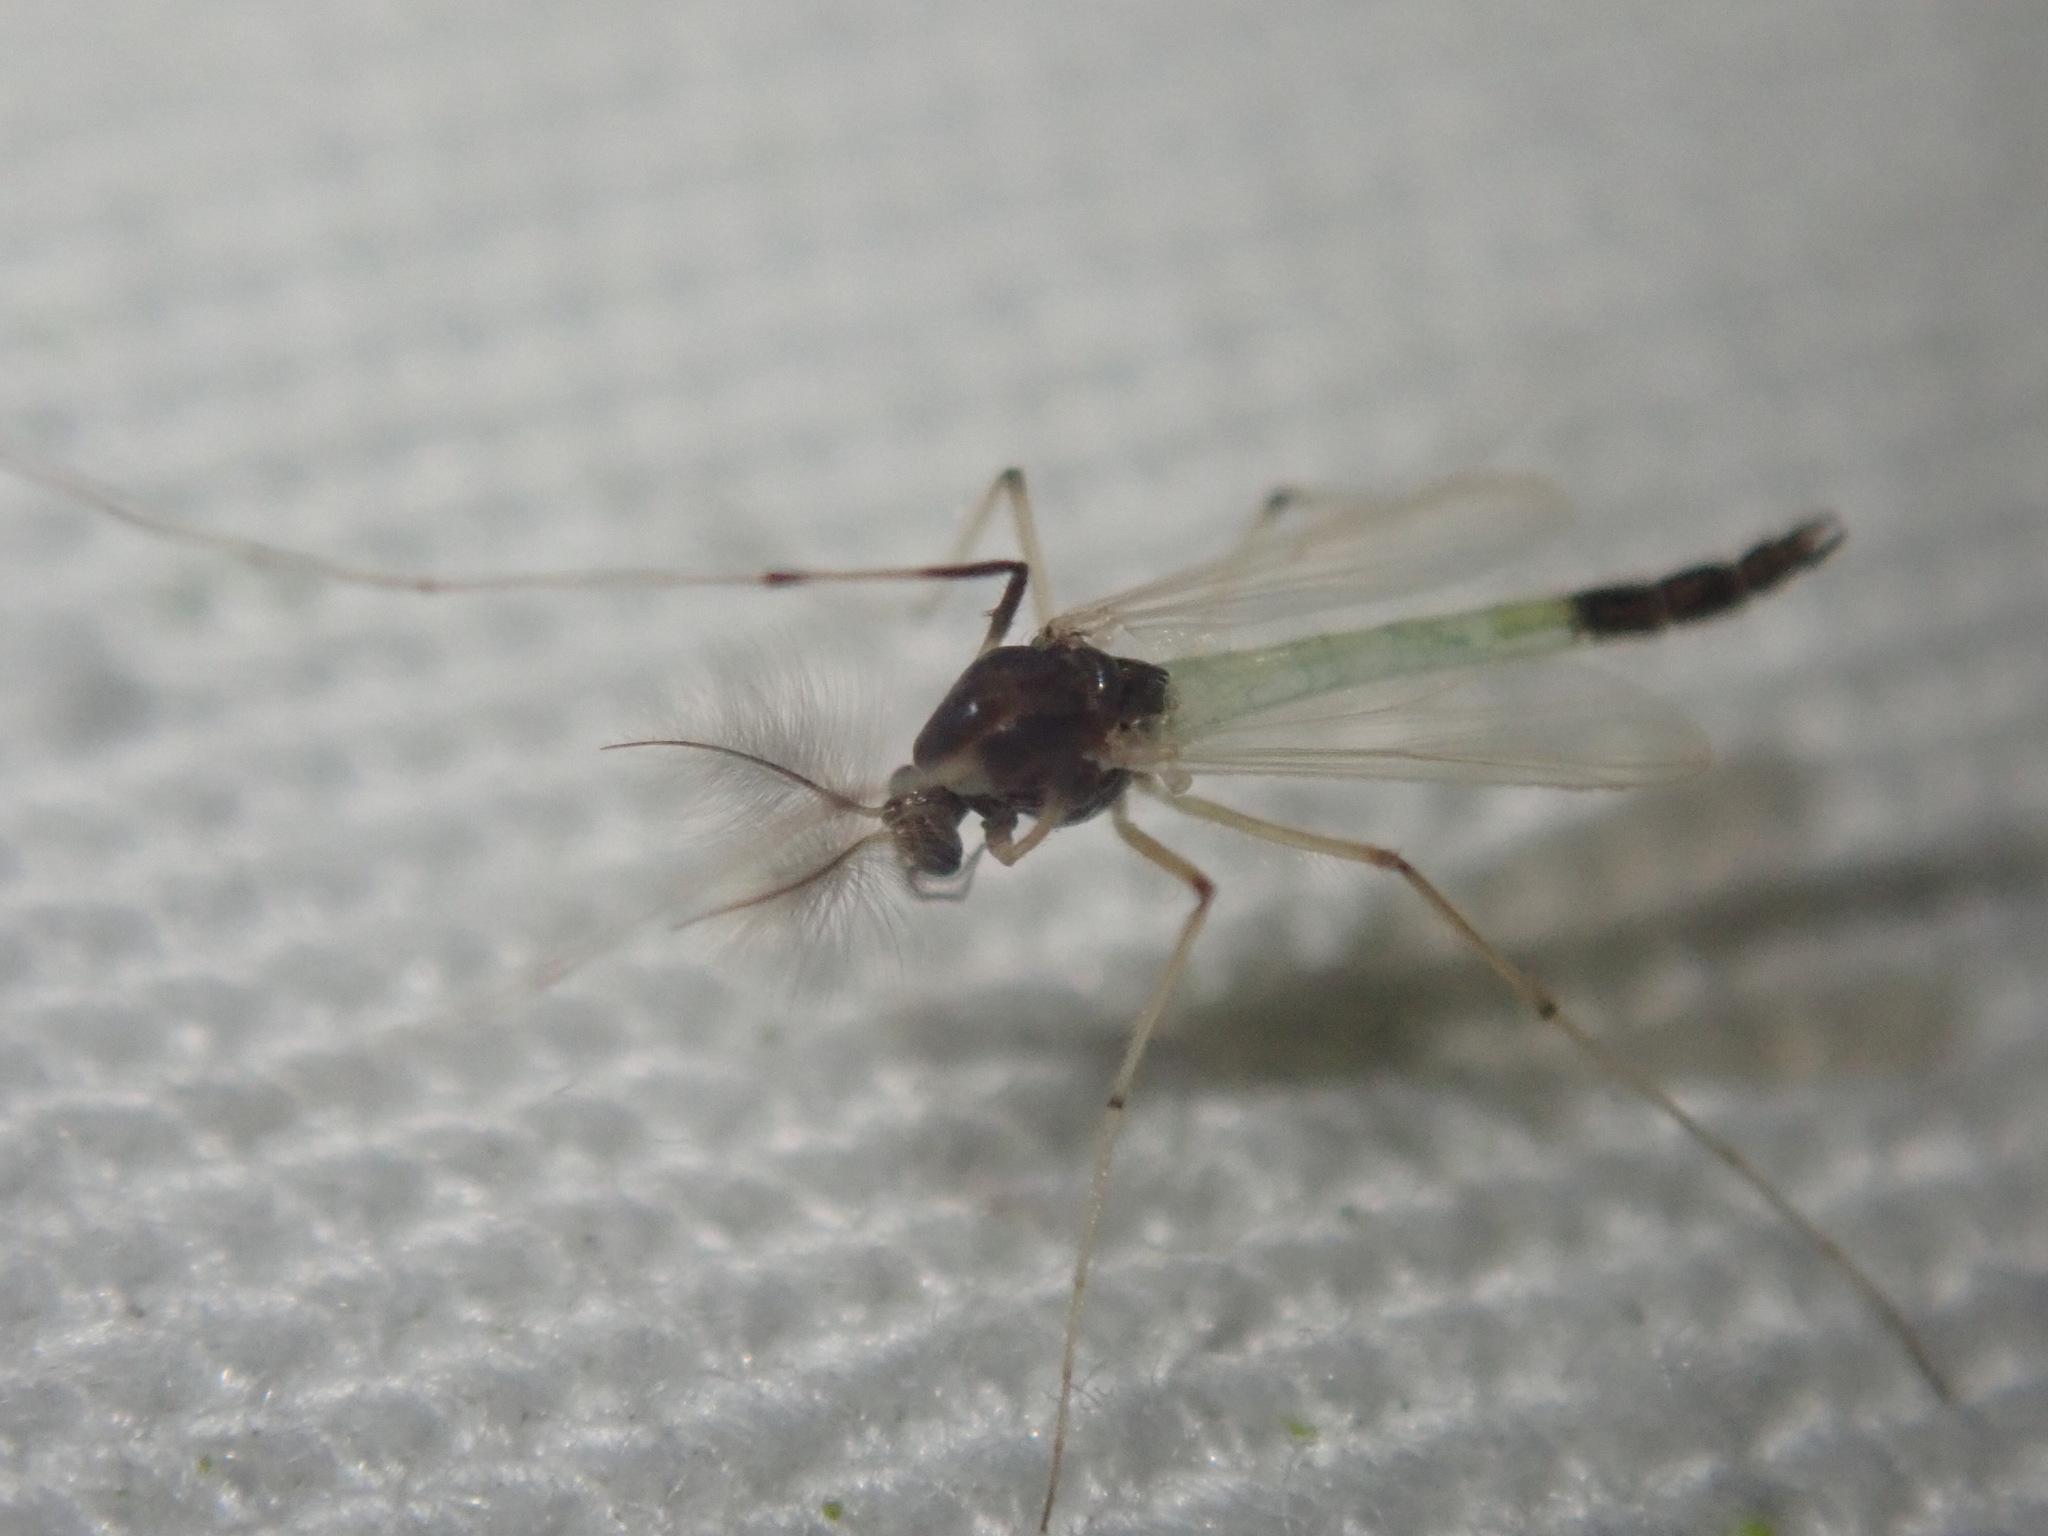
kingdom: Animalia
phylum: Arthropoda
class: Insecta
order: Diptera
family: Chironomidae
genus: Microtendipes
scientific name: Microtendipes pedellus
